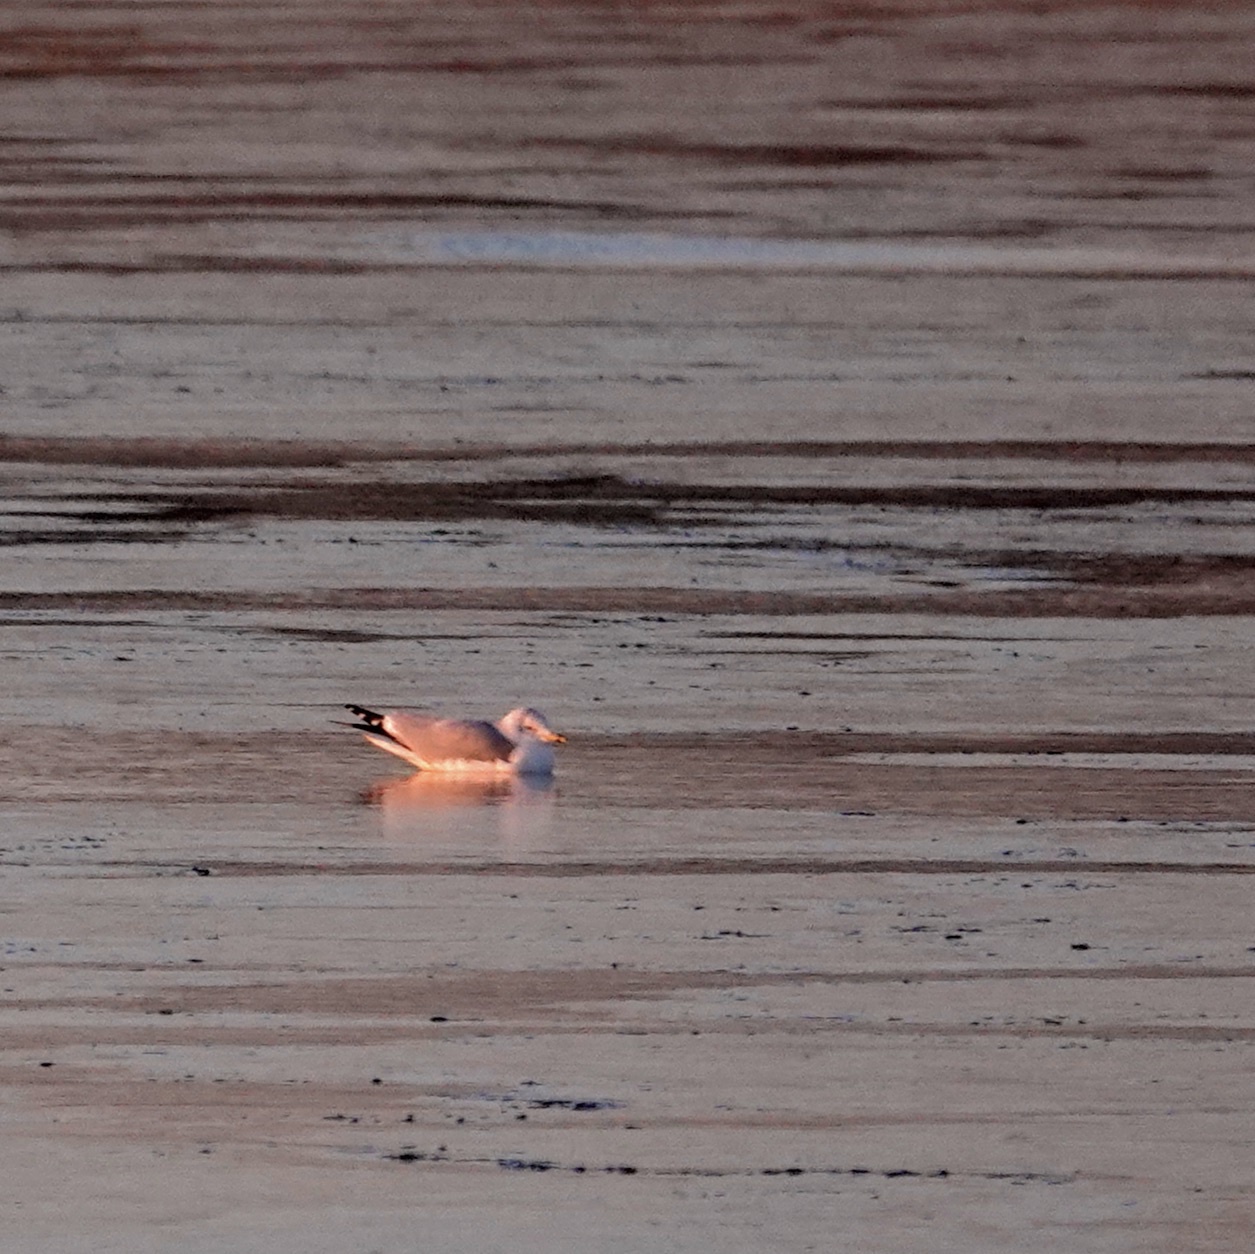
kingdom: Animalia
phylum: Chordata
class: Aves
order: Charadriiformes
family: Laridae
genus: Larus
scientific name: Larus delawarensis
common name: Ring-billed gull
